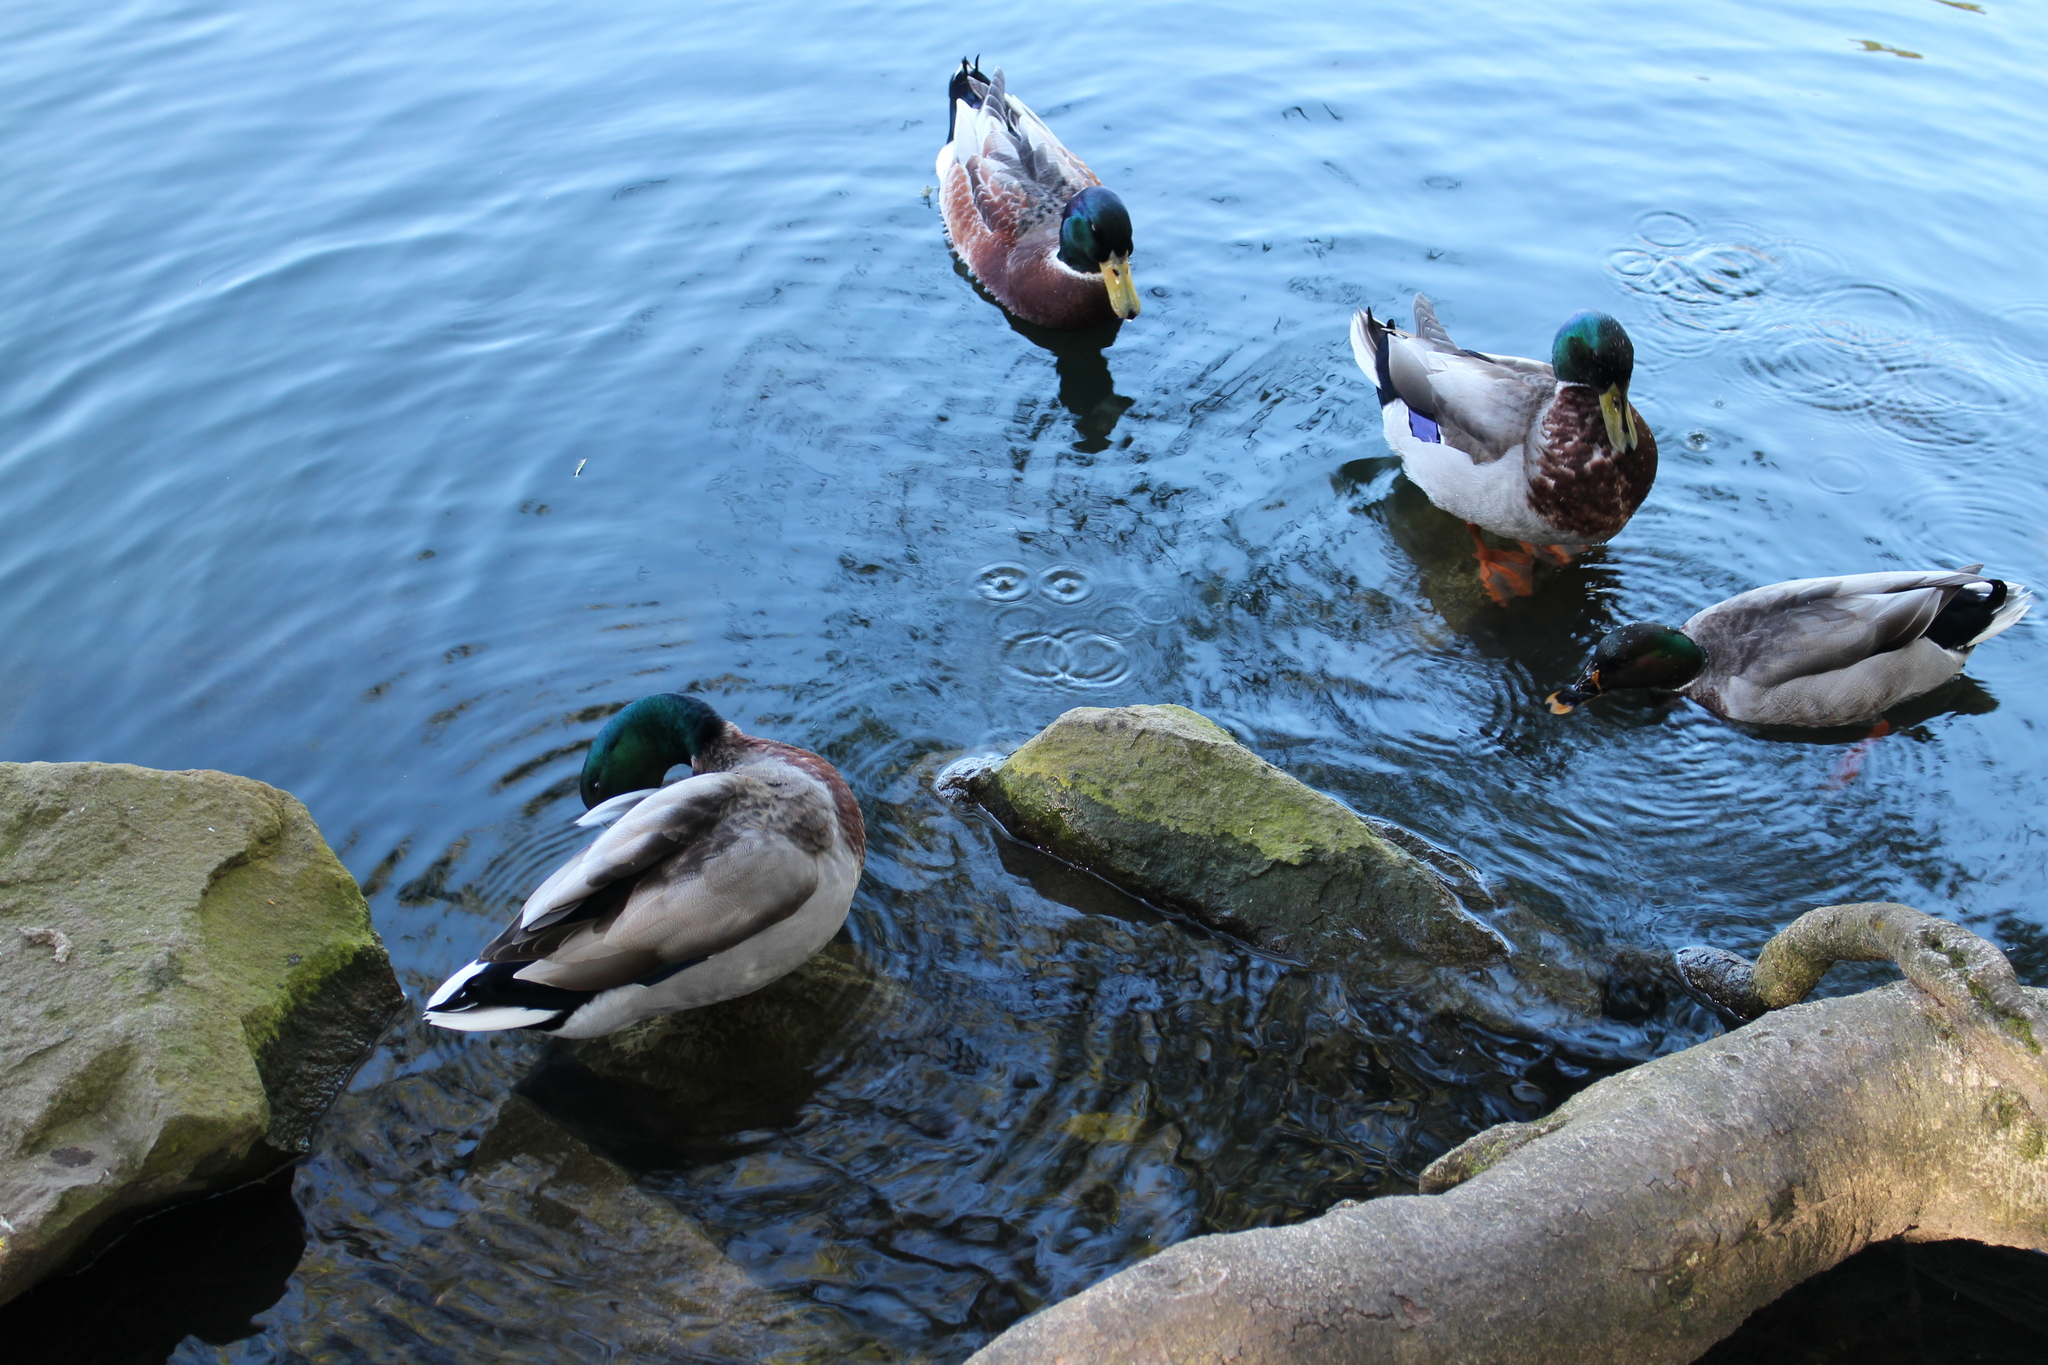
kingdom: Animalia
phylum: Chordata
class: Aves
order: Anseriformes
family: Anatidae
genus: Anas
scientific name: Anas platyrhynchos
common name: Mallard
